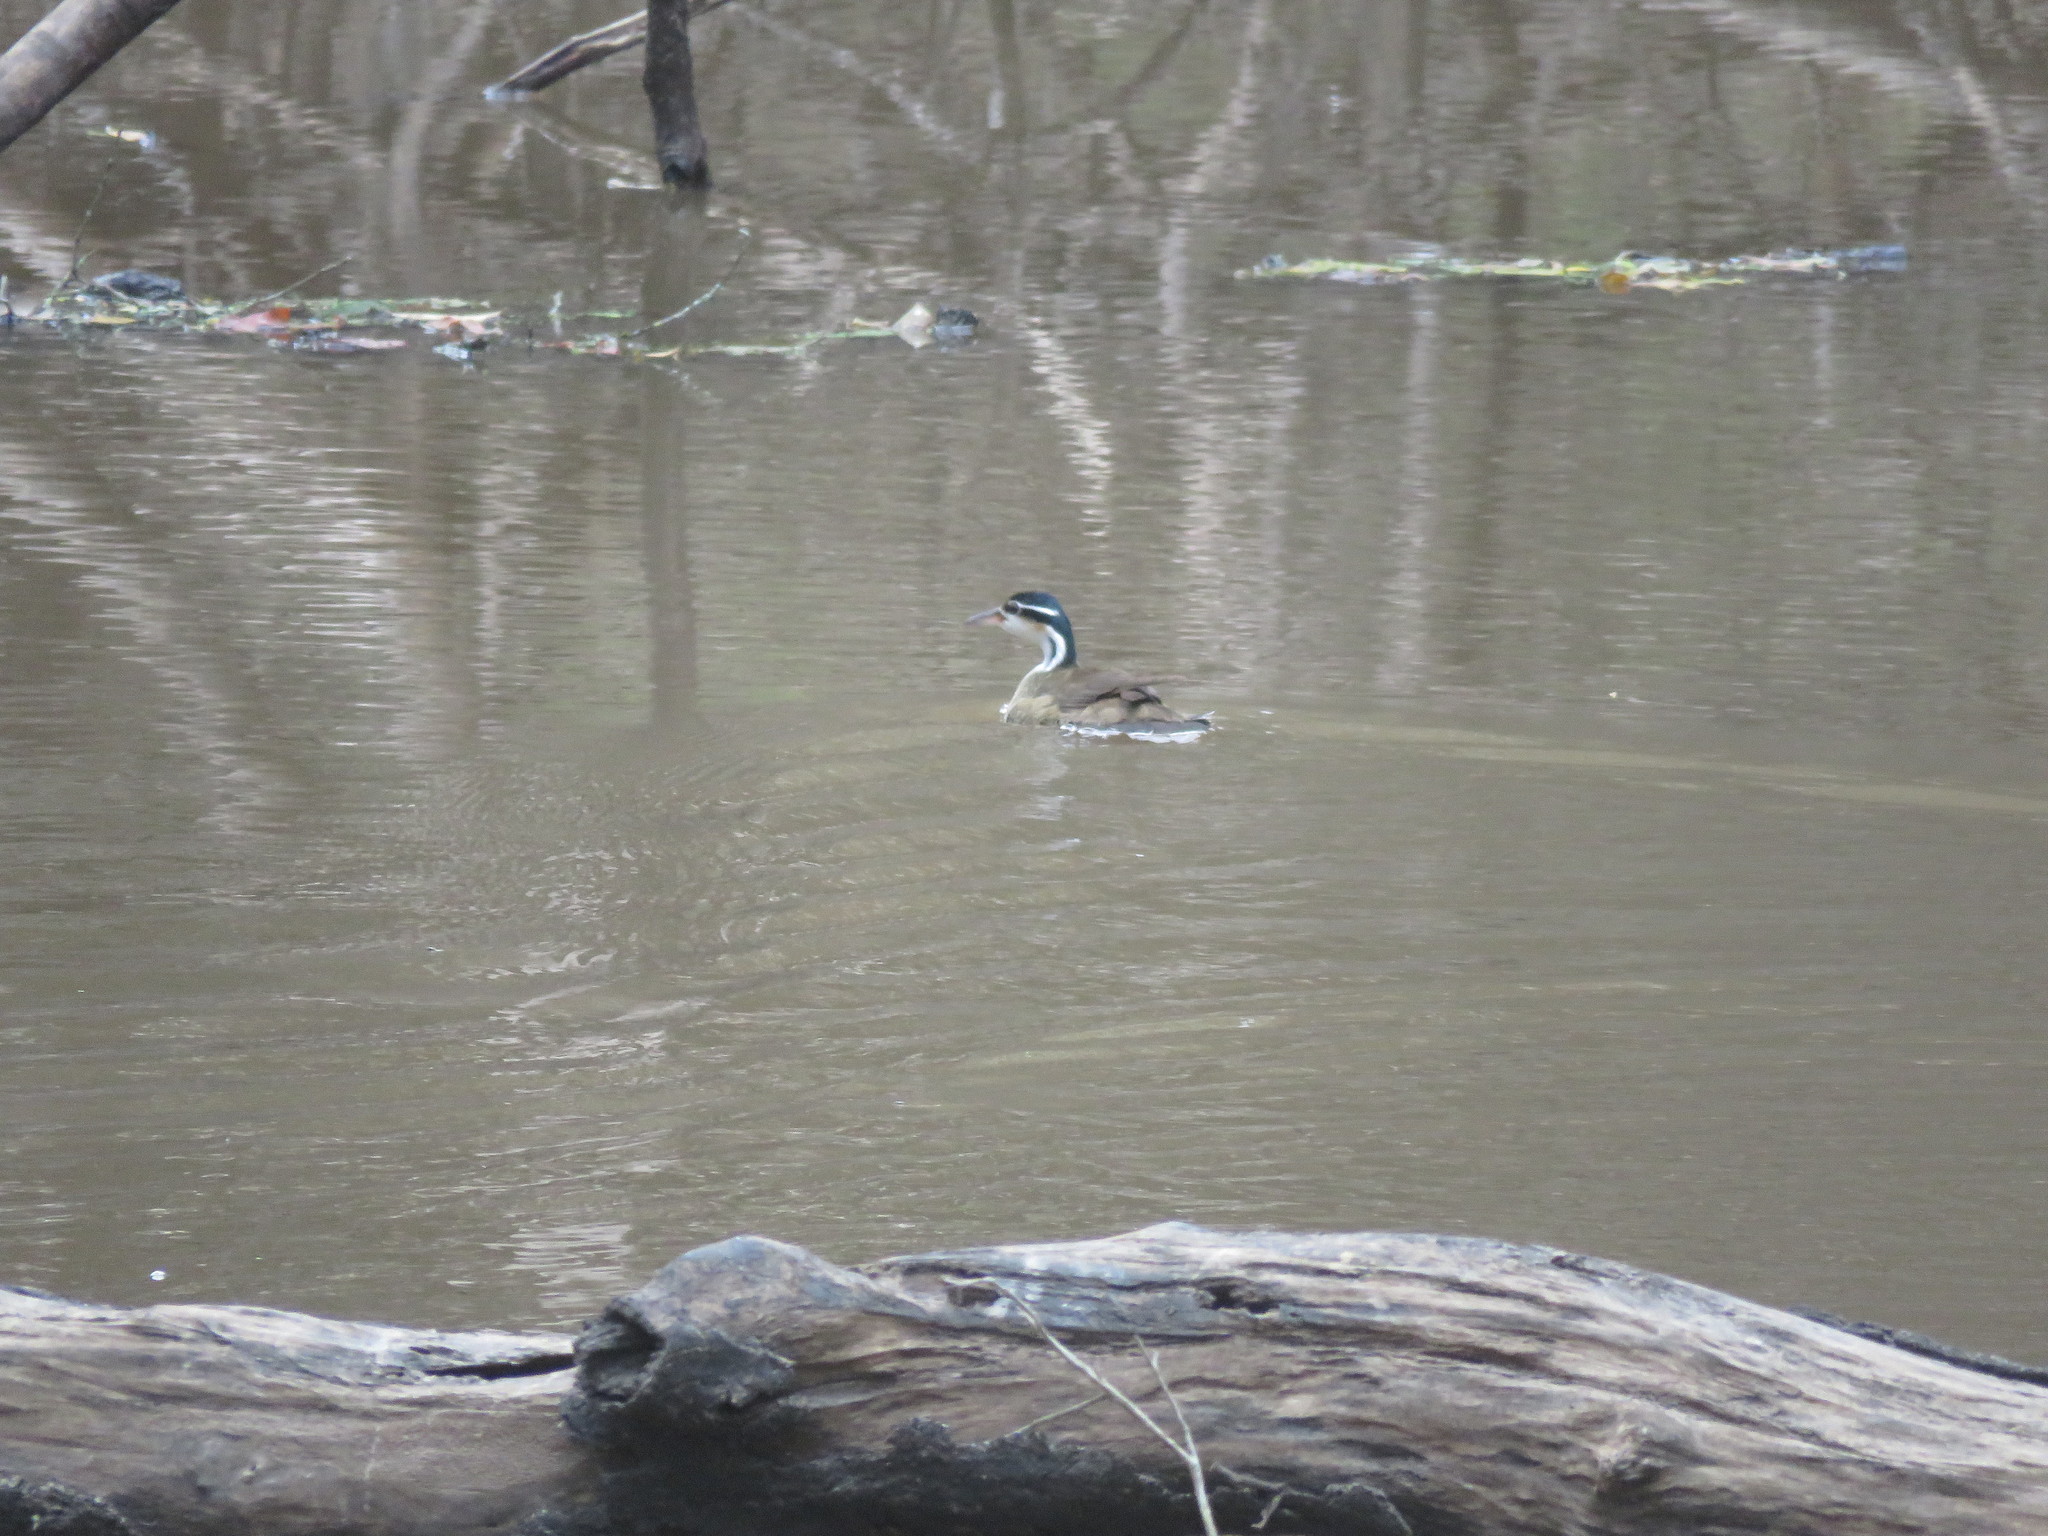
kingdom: Animalia
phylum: Chordata
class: Aves
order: Gruiformes
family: Heliornithidae
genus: Heliornis
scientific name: Heliornis fulica
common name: Sungrebe
